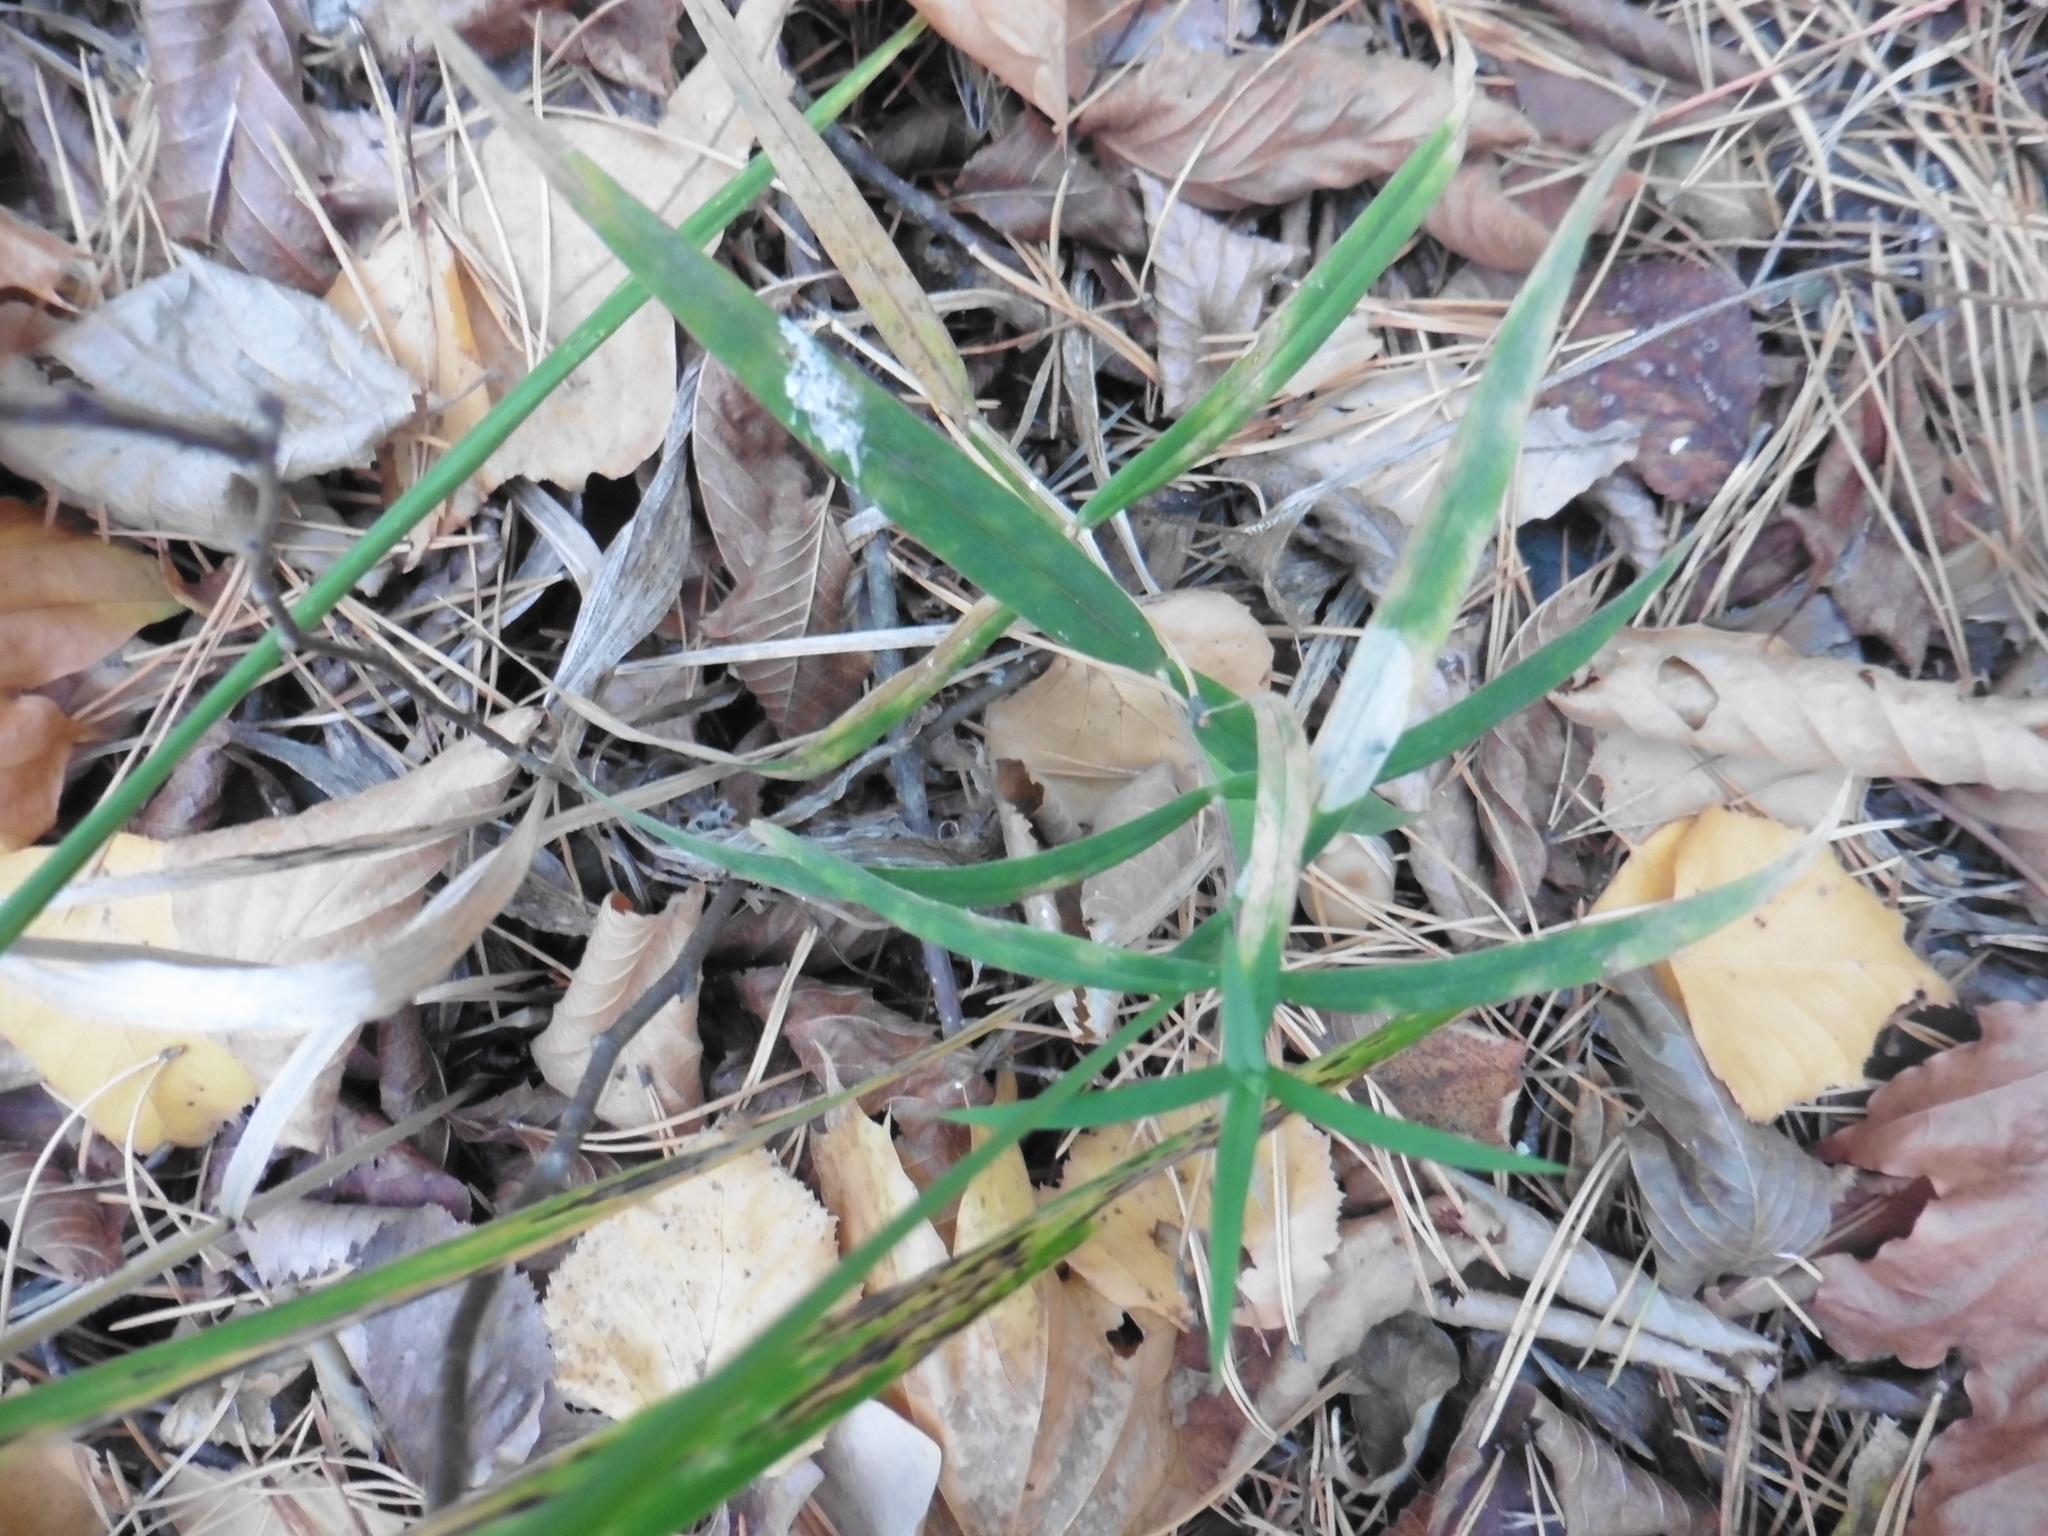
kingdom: Plantae
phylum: Tracheophyta
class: Magnoliopsida
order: Caryophyllales
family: Caryophyllaceae
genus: Rabelera
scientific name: Rabelera holostea
